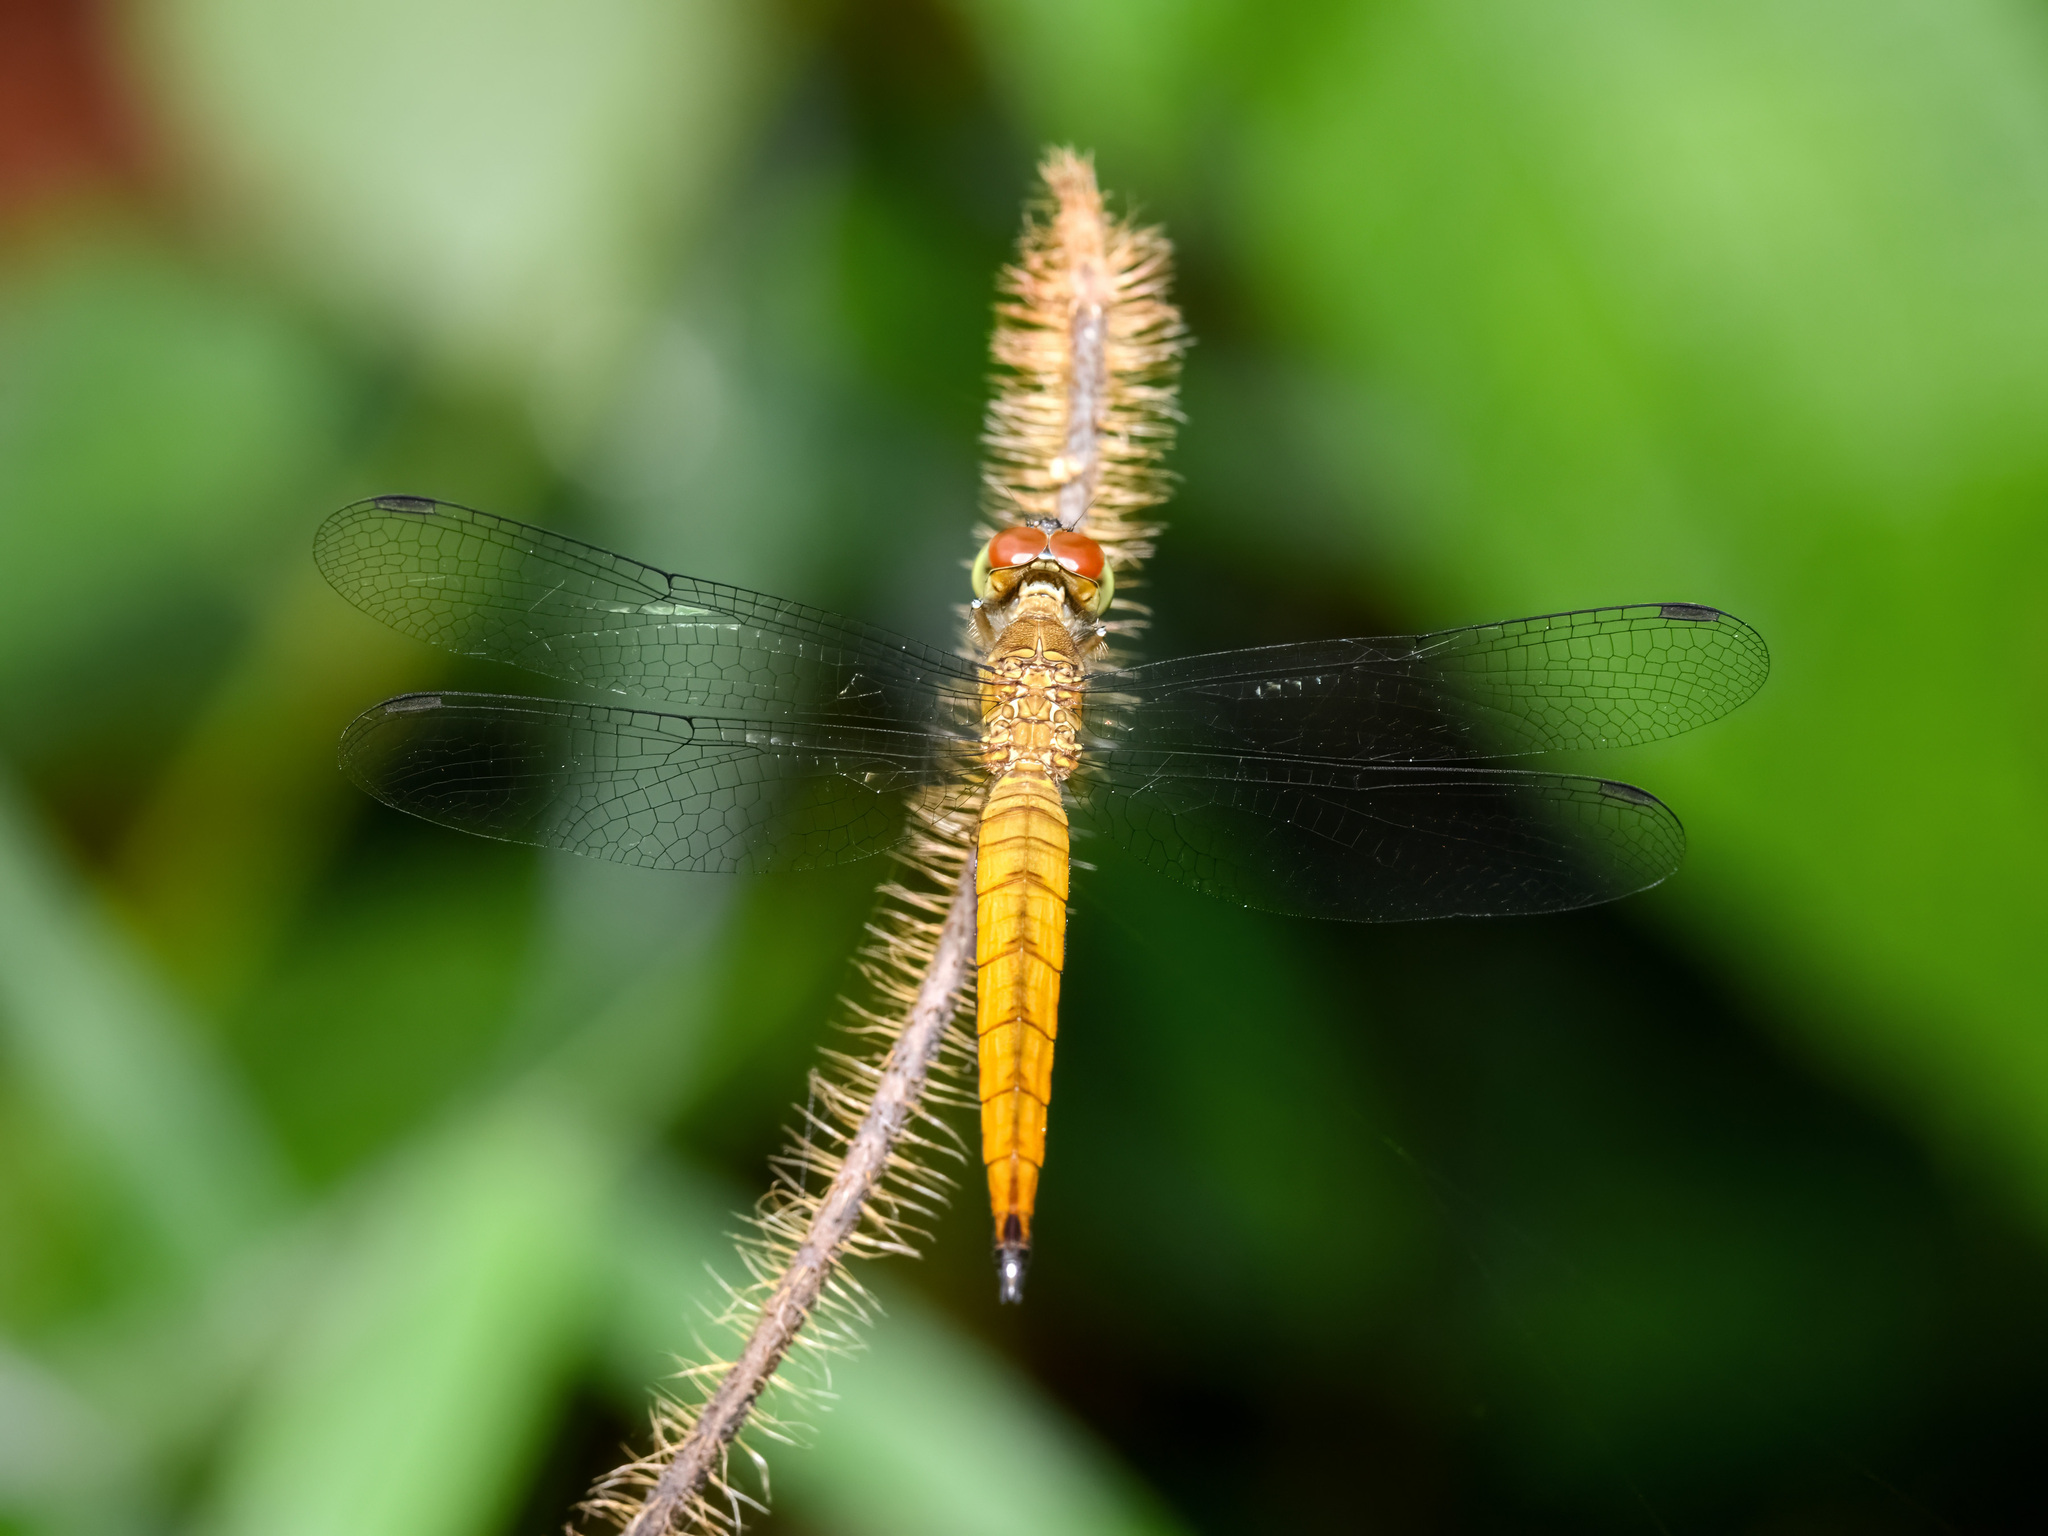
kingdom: Animalia
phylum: Arthropoda
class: Insecta
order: Odonata
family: Libellulidae
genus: Orchithemis
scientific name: Orchithemis pulcherrima
